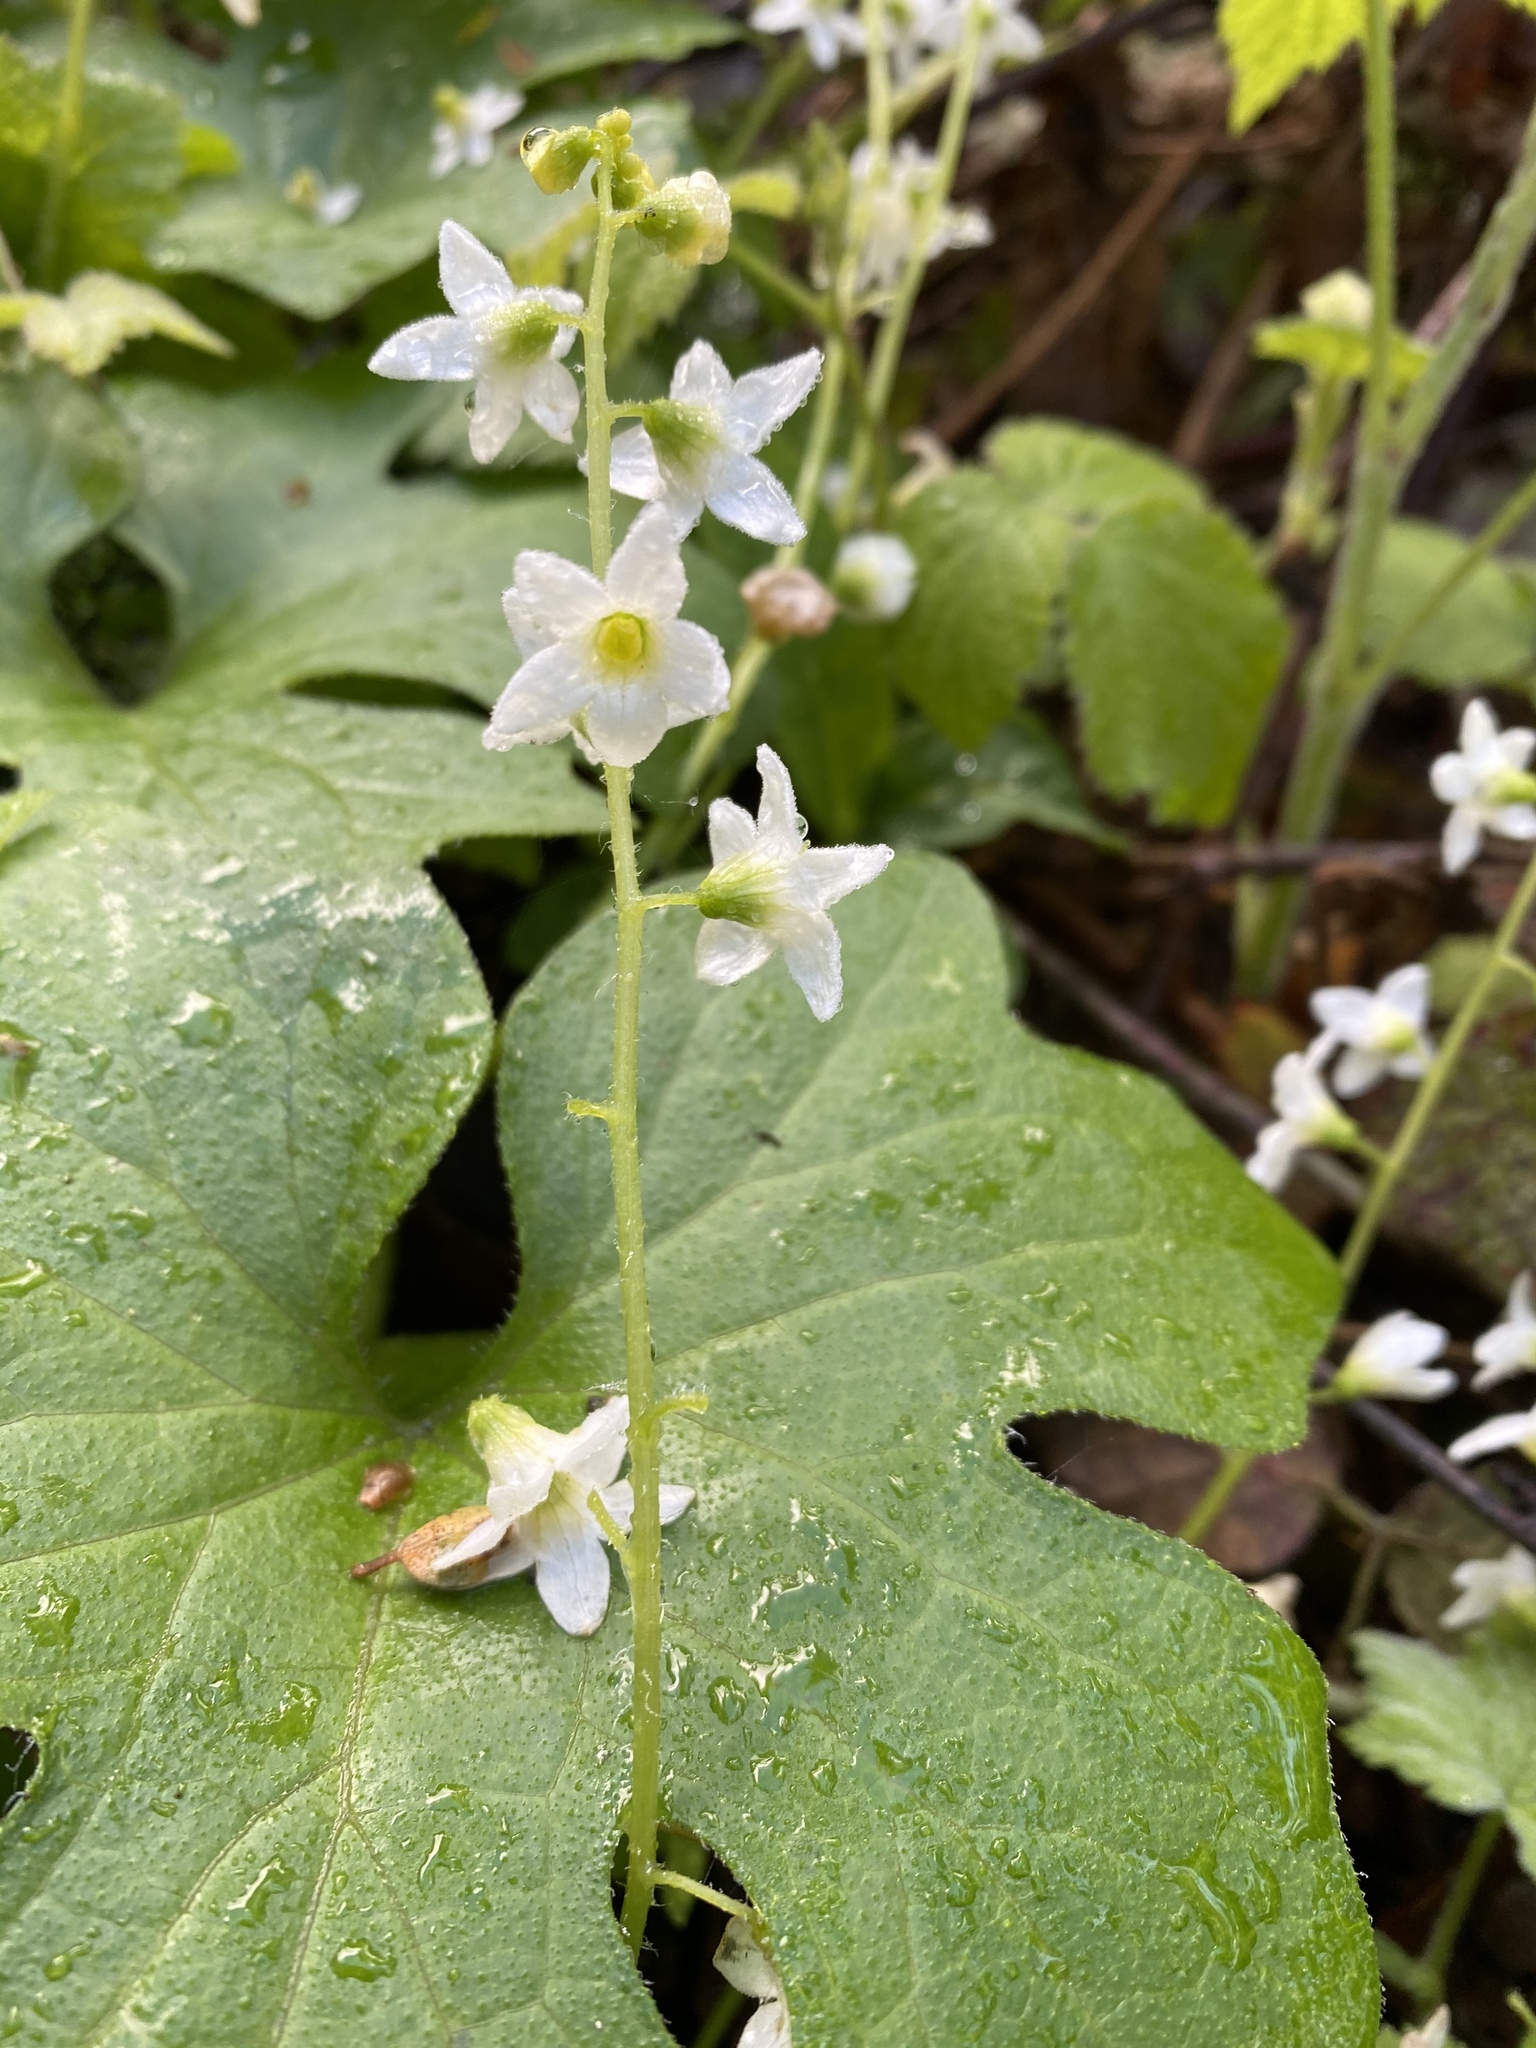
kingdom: Plantae
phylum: Tracheophyta
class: Magnoliopsida
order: Cucurbitales
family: Cucurbitaceae
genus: Marah
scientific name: Marah oregana
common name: Coastal manroot
